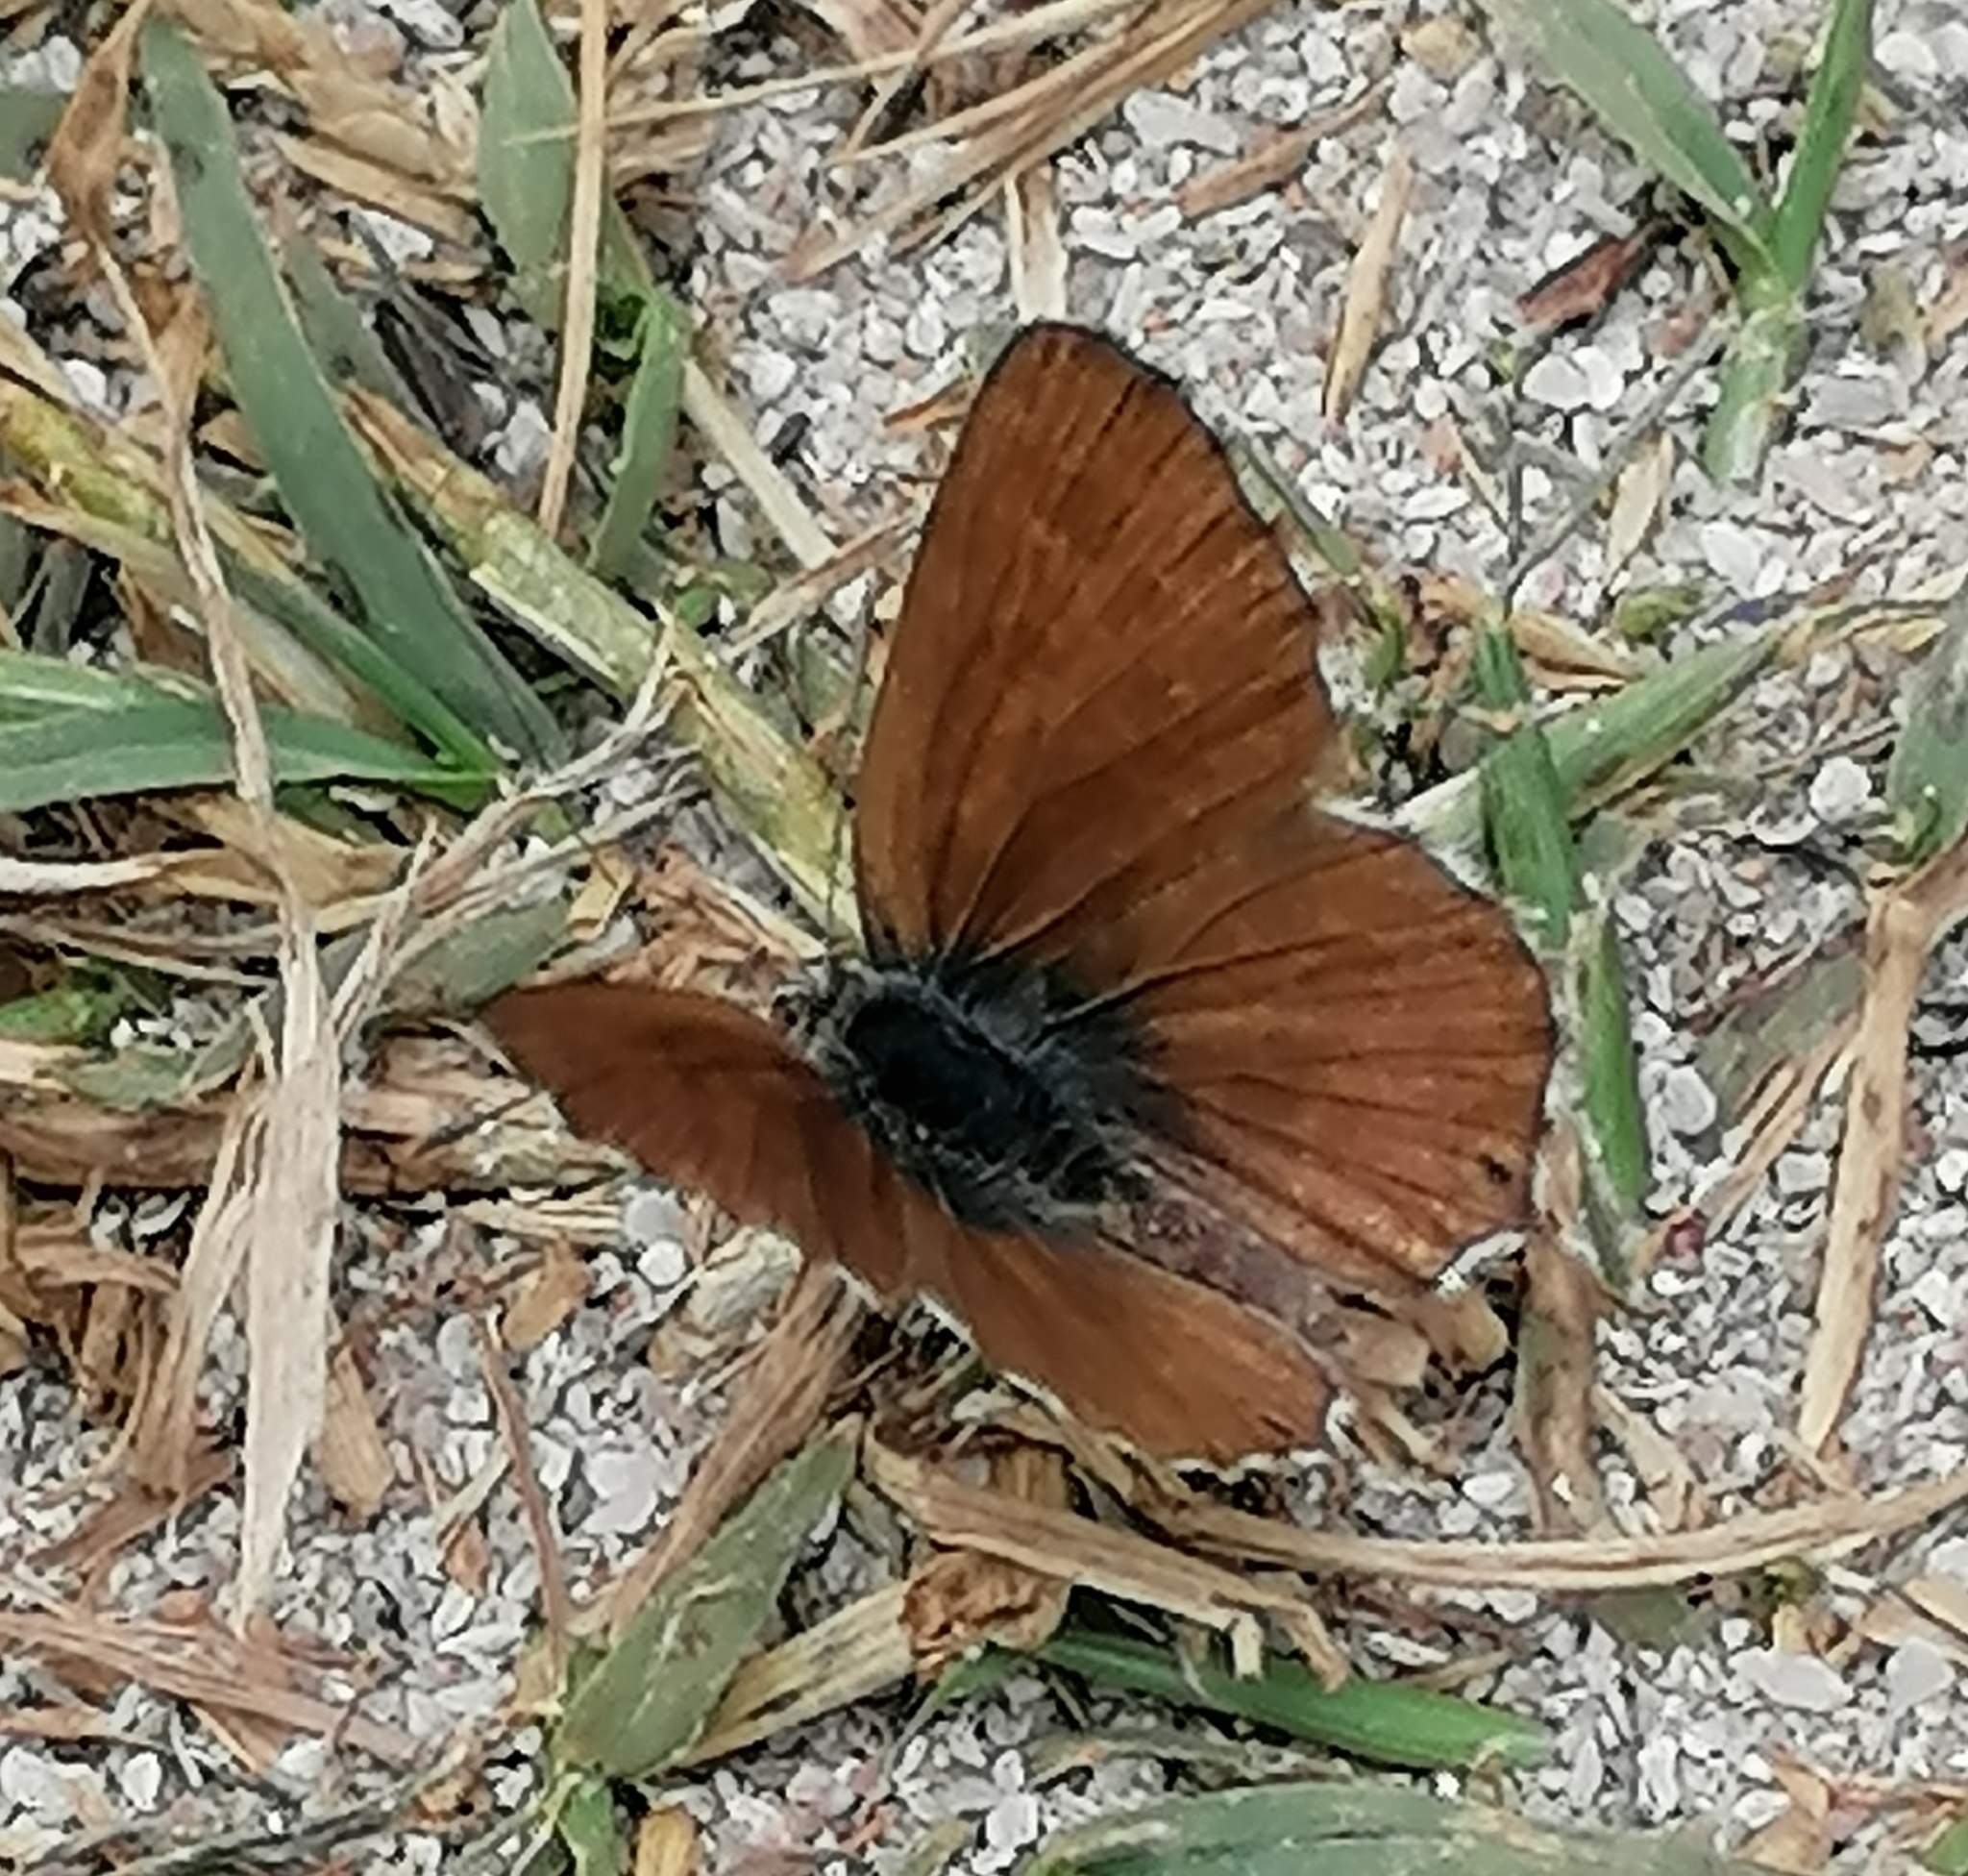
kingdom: Animalia
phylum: Arthropoda
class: Insecta
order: Lepidoptera
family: Lycaenidae
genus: Cacyreus
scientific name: Cacyreus fracta
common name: Water bronze
